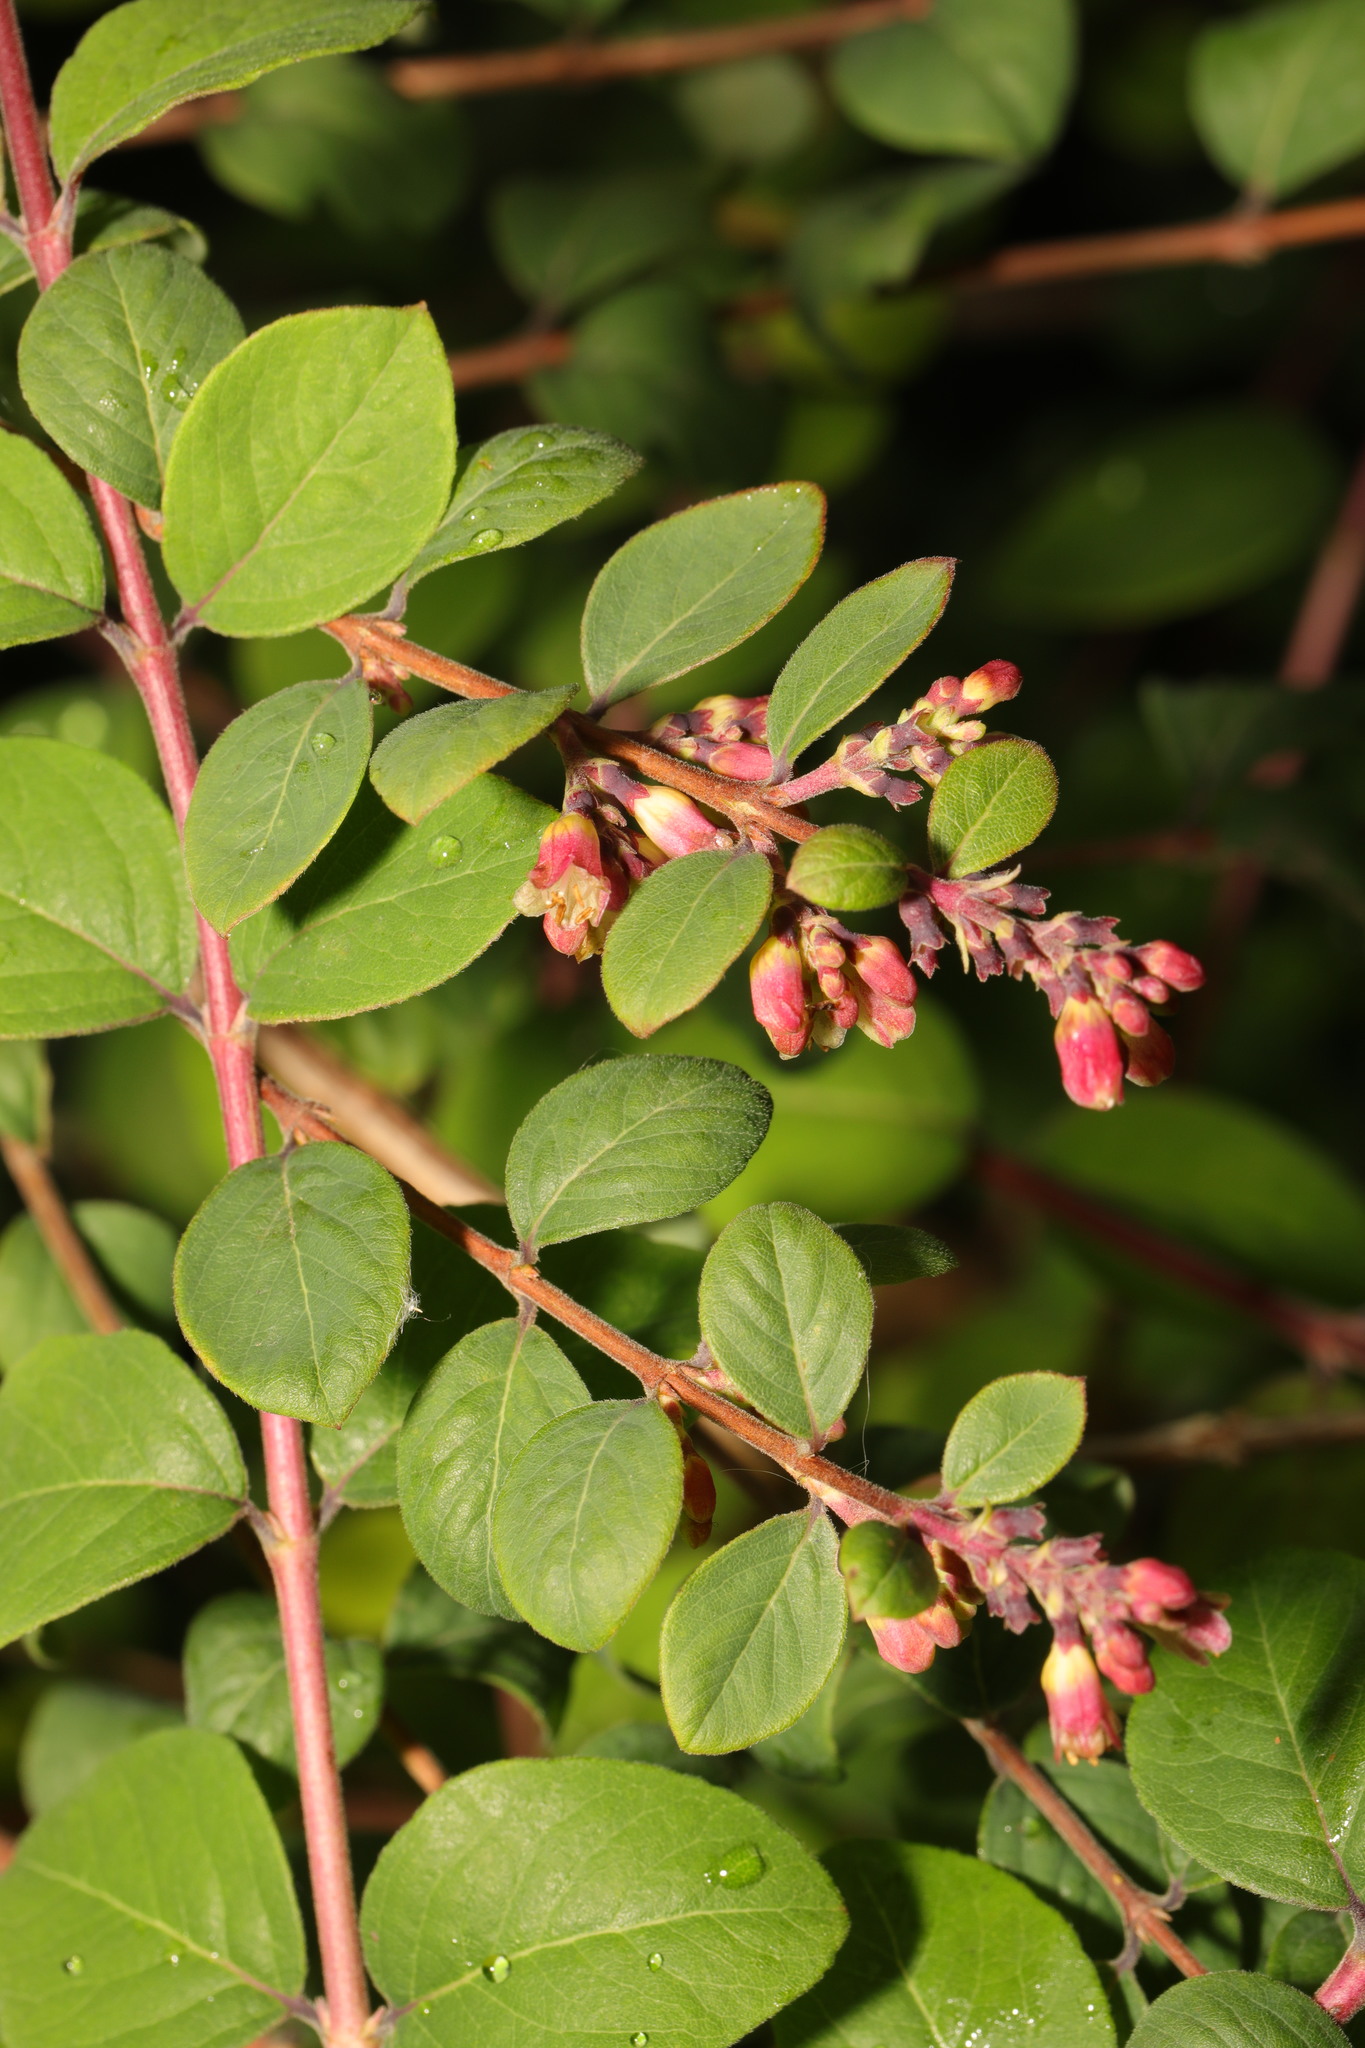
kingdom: Plantae
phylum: Tracheophyta
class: Magnoliopsida
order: Dipsacales
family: Caprifoliaceae
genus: Symphoricarpos
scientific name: Symphoricarpos chenaultii
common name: Hybrid coralberry
